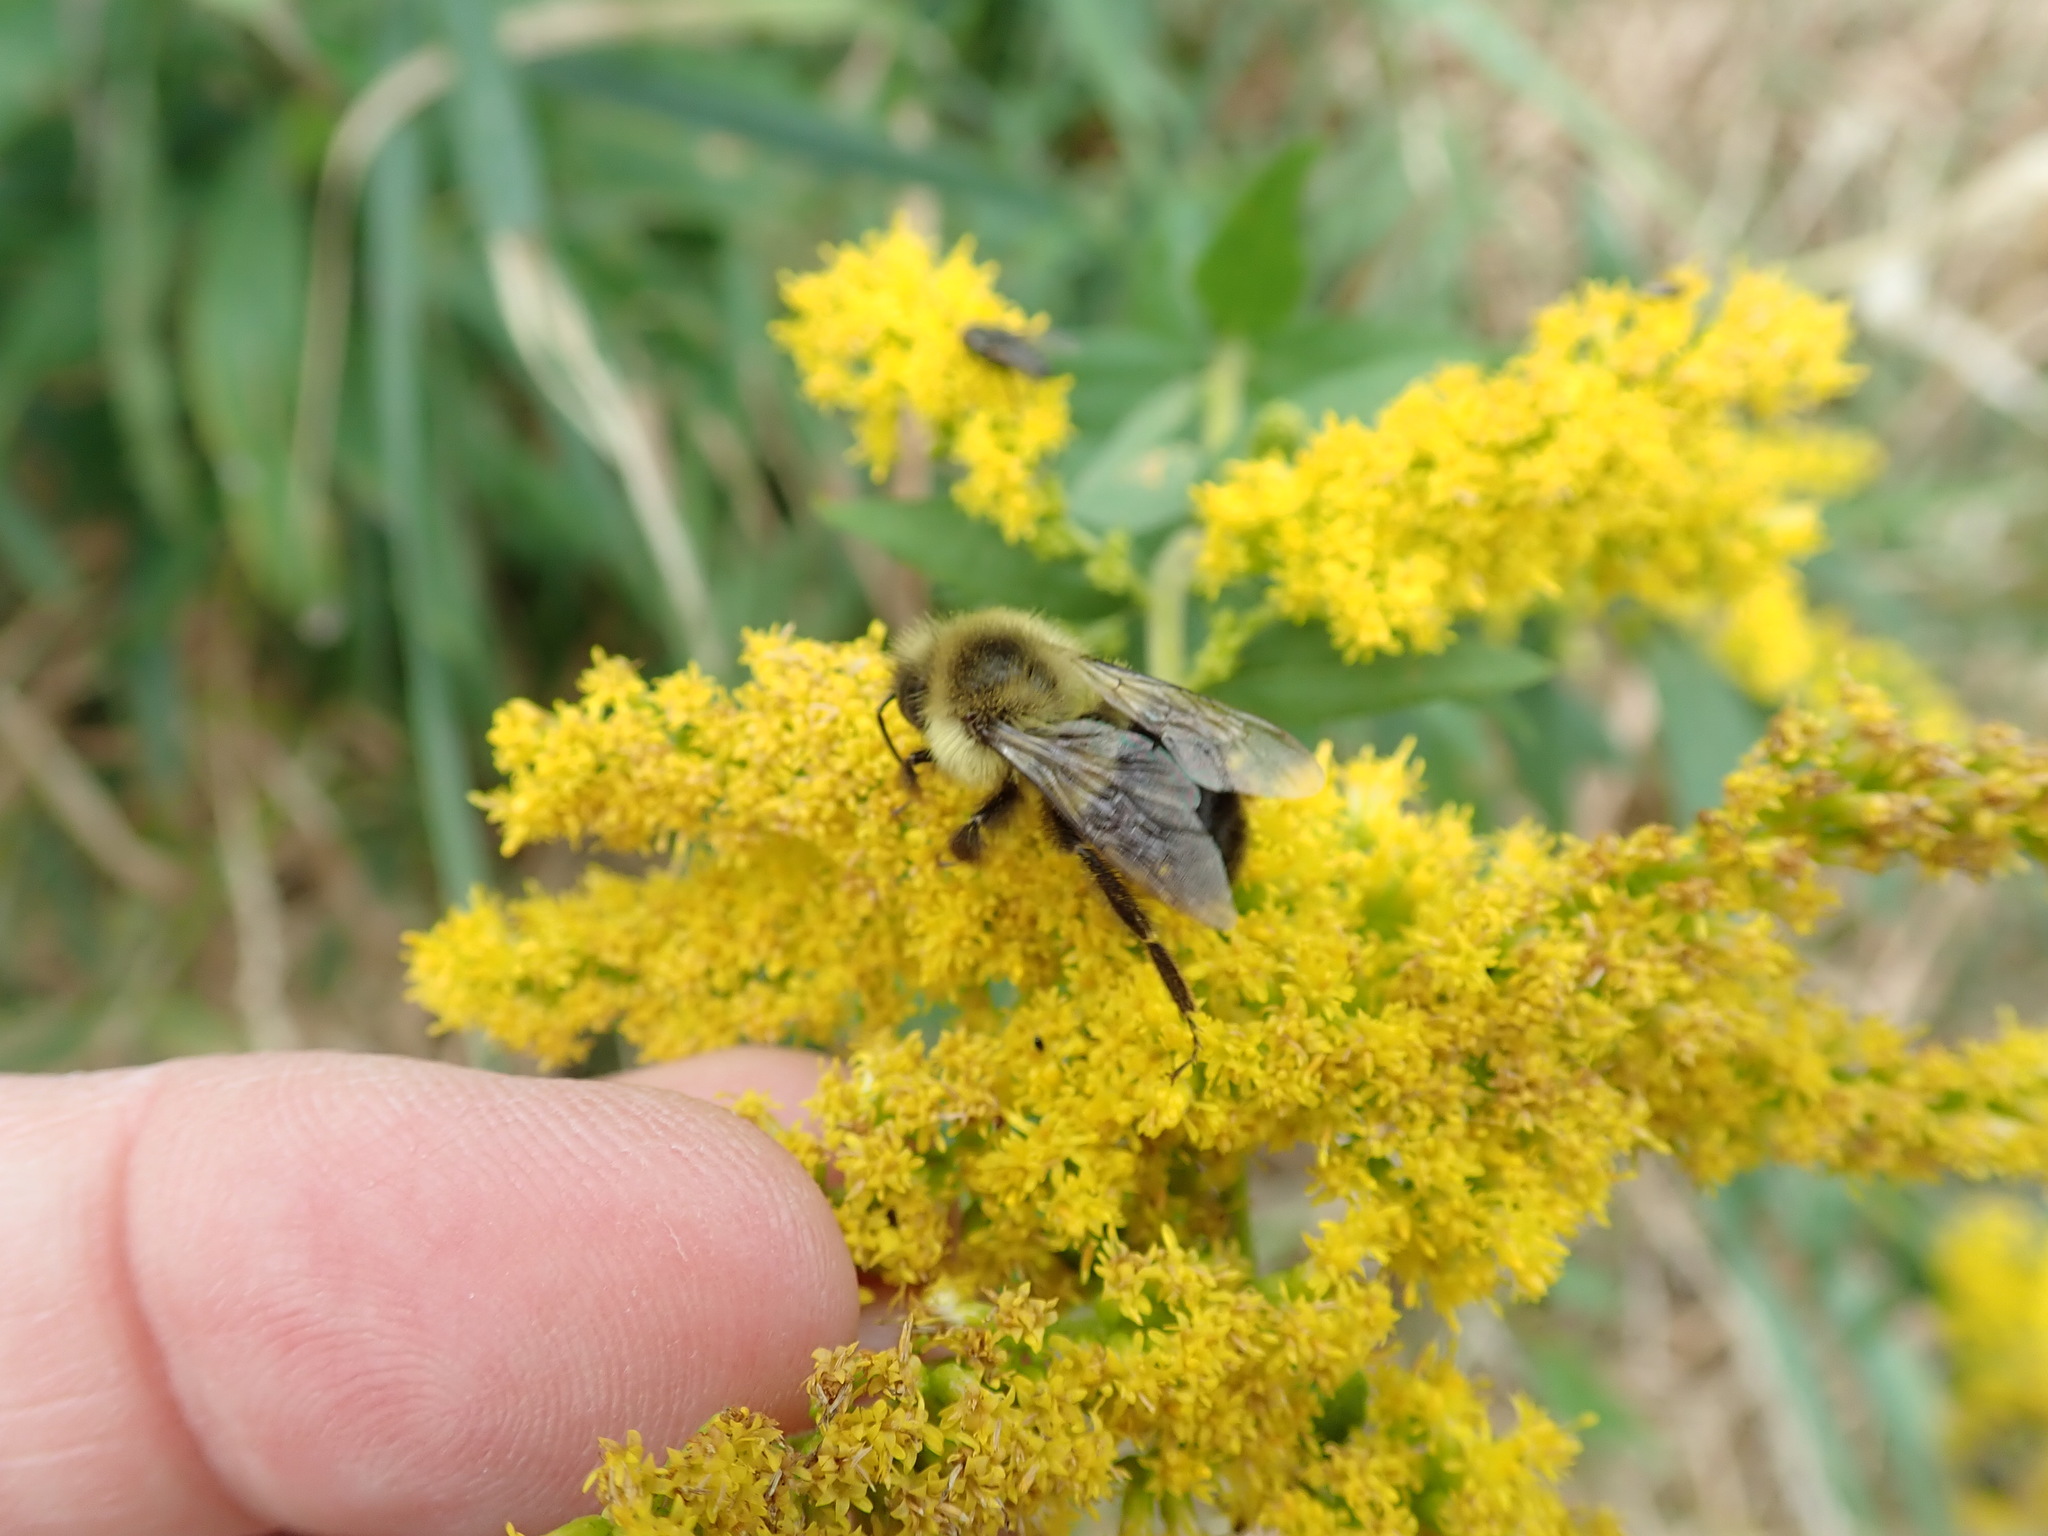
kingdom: Animalia
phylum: Arthropoda
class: Insecta
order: Hymenoptera
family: Apidae
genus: Bombus
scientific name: Bombus impatiens
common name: Common eastern bumble bee
